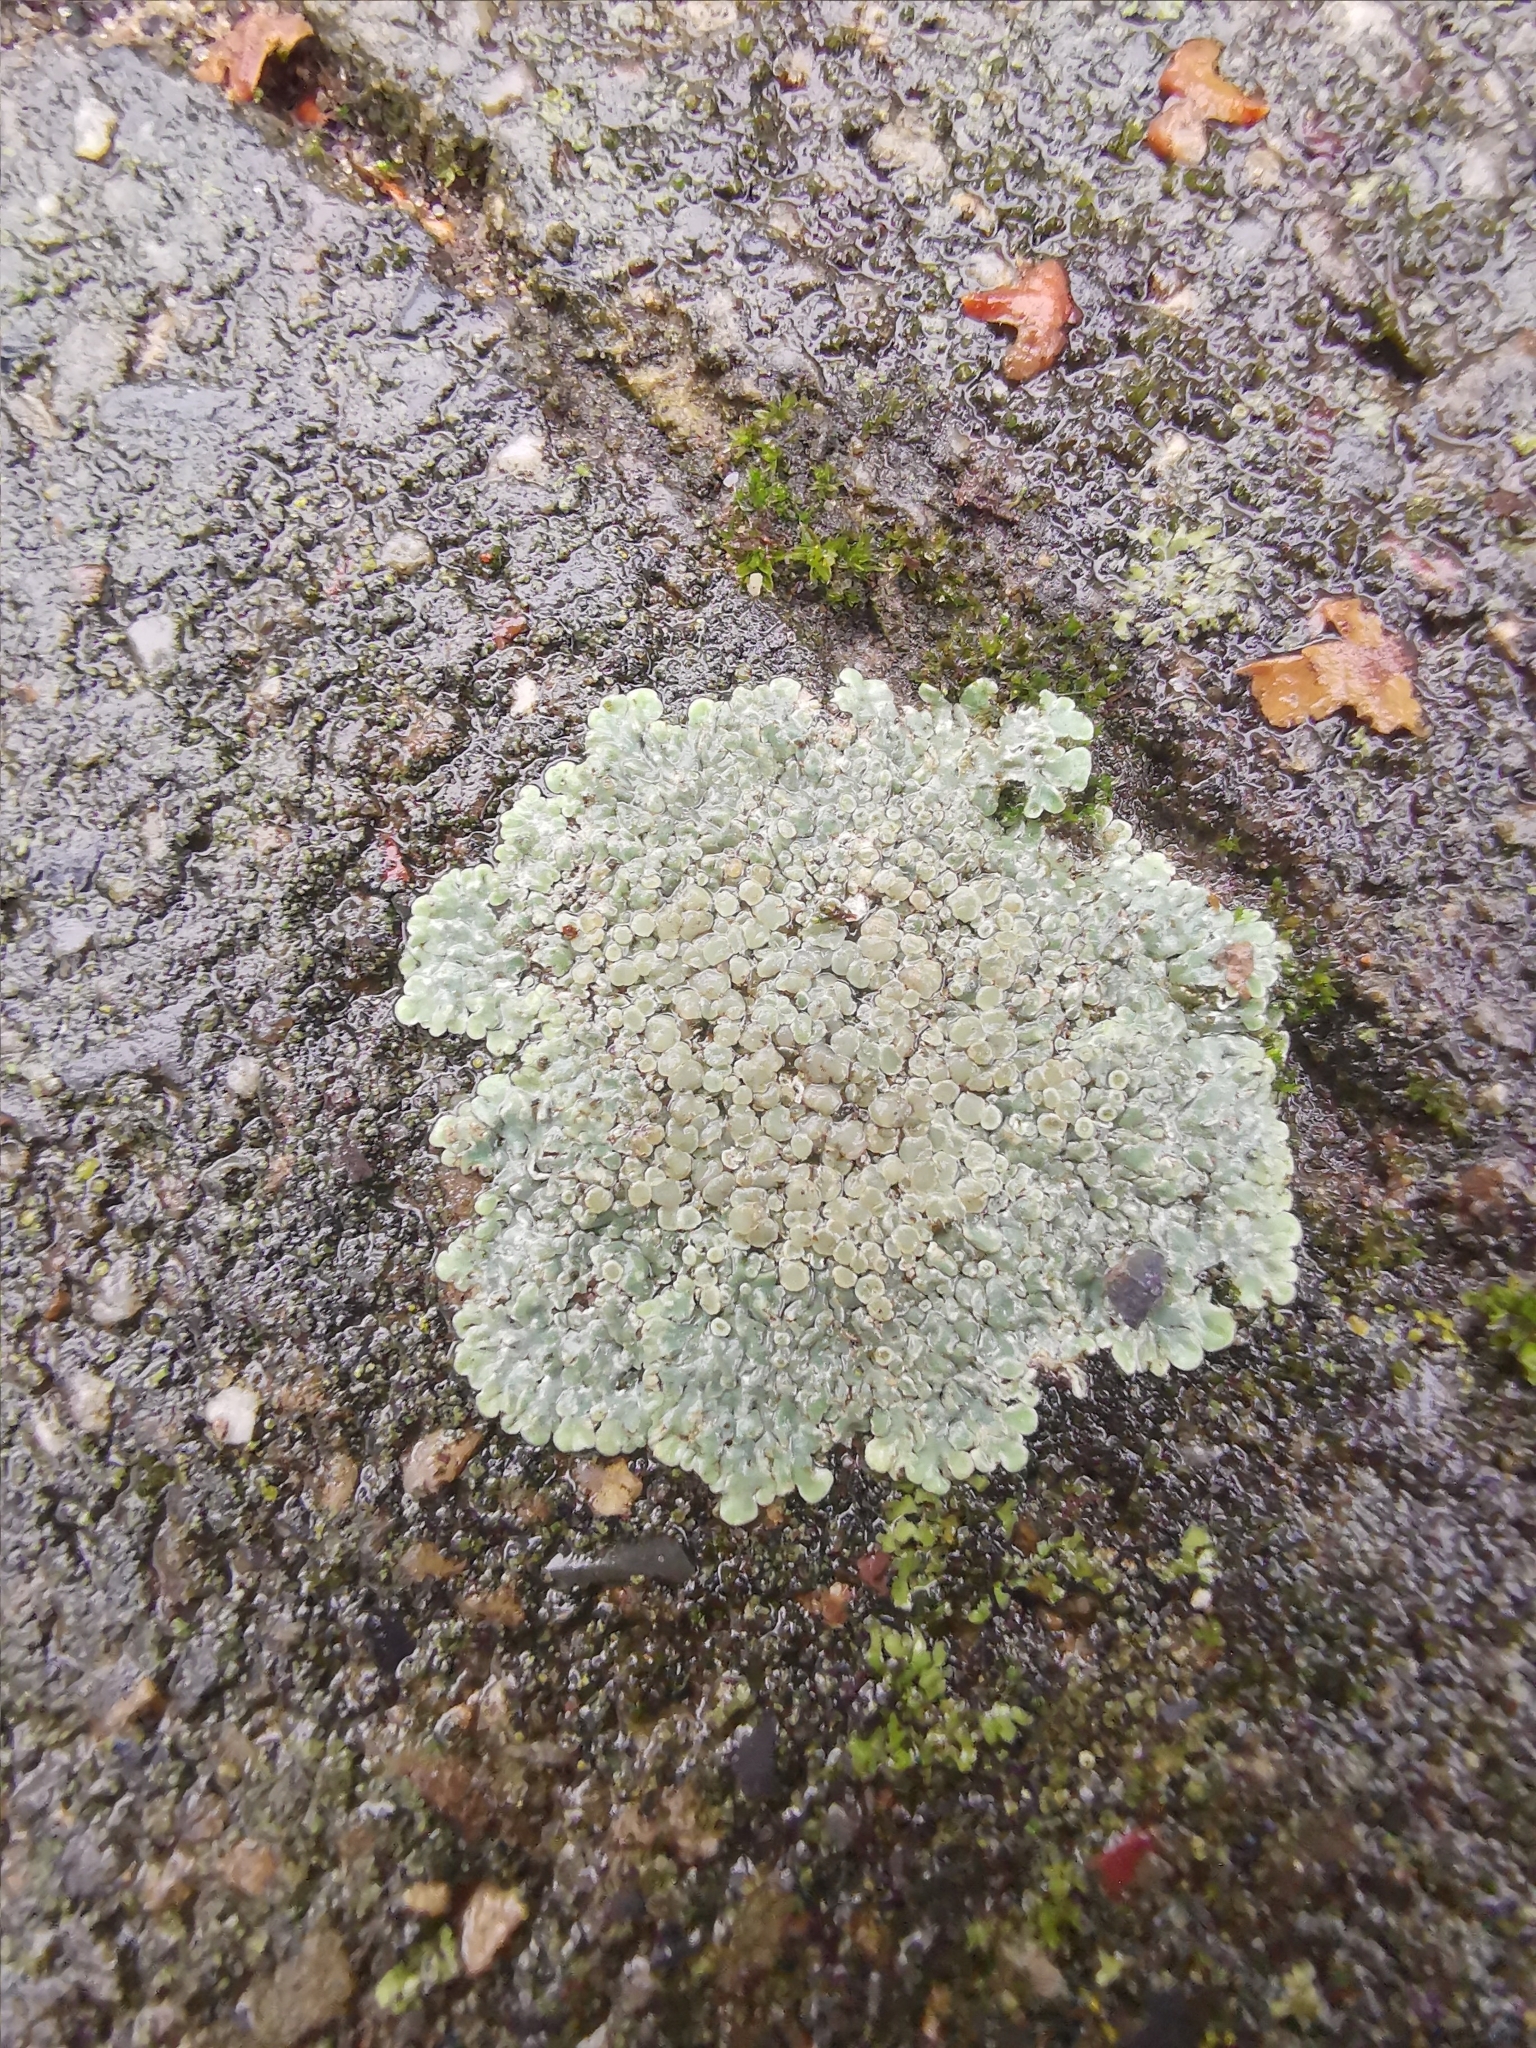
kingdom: Fungi
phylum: Ascomycota
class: Lecanoromycetes
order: Lecanorales
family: Lecanoraceae
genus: Protoparmeliopsis
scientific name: Protoparmeliopsis muralis
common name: Stonewall rim lichen
